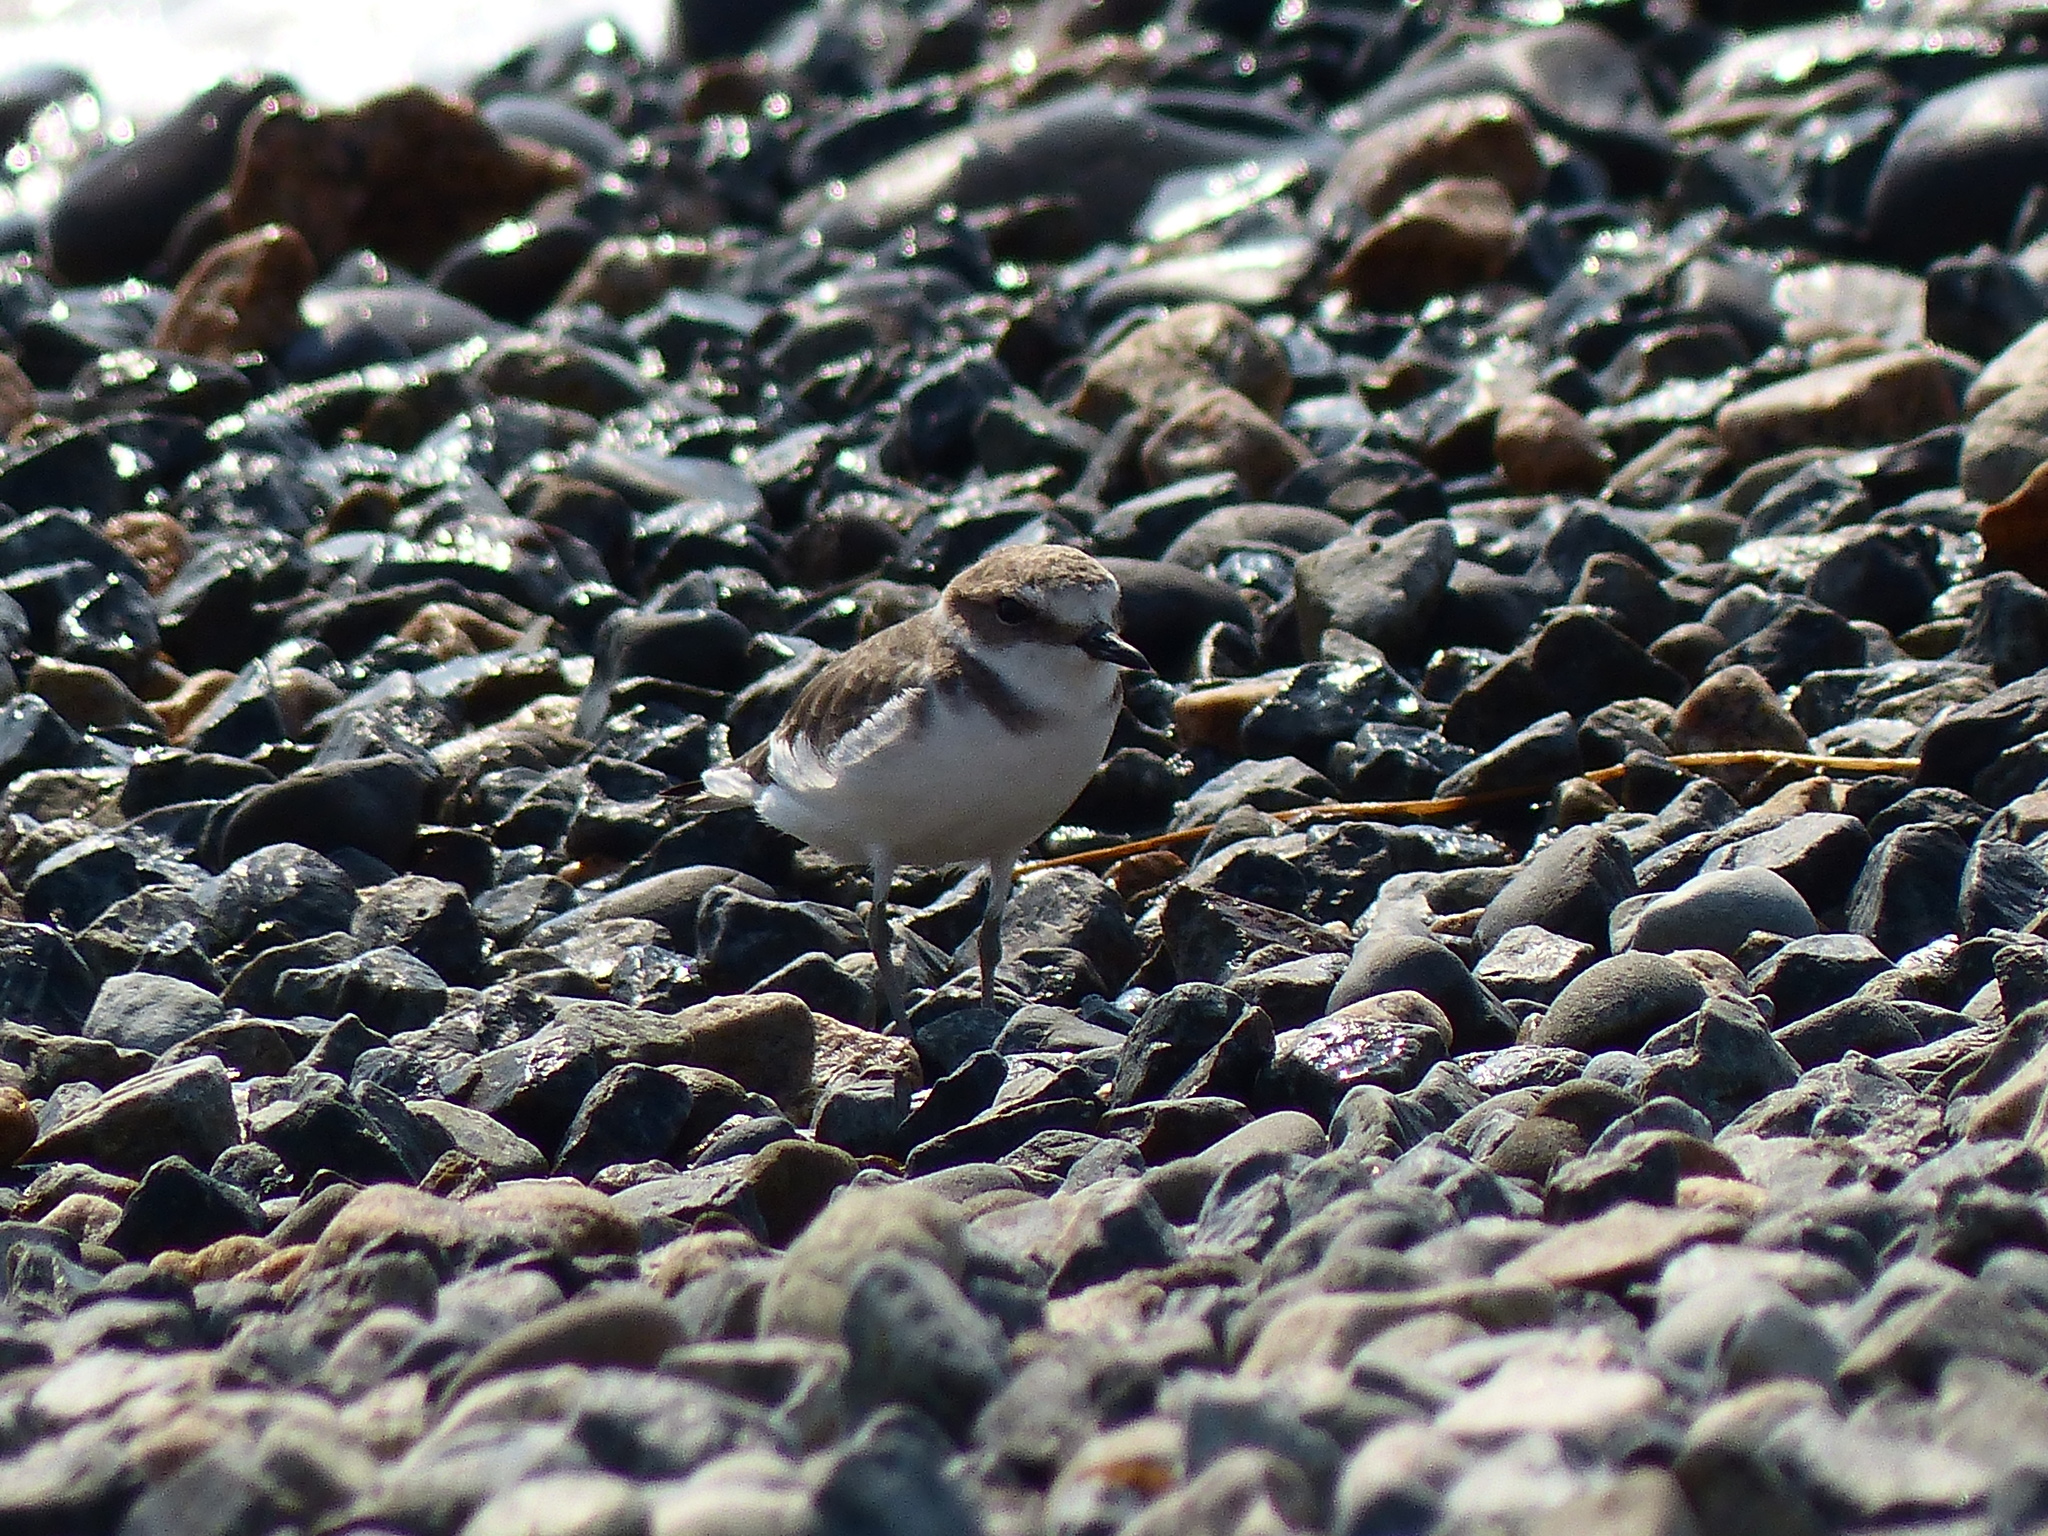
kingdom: Animalia
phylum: Chordata
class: Aves
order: Charadriiformes
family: Charadriidae
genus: Charadrius
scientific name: Charadrius alexandrinus
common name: Kentish plover
